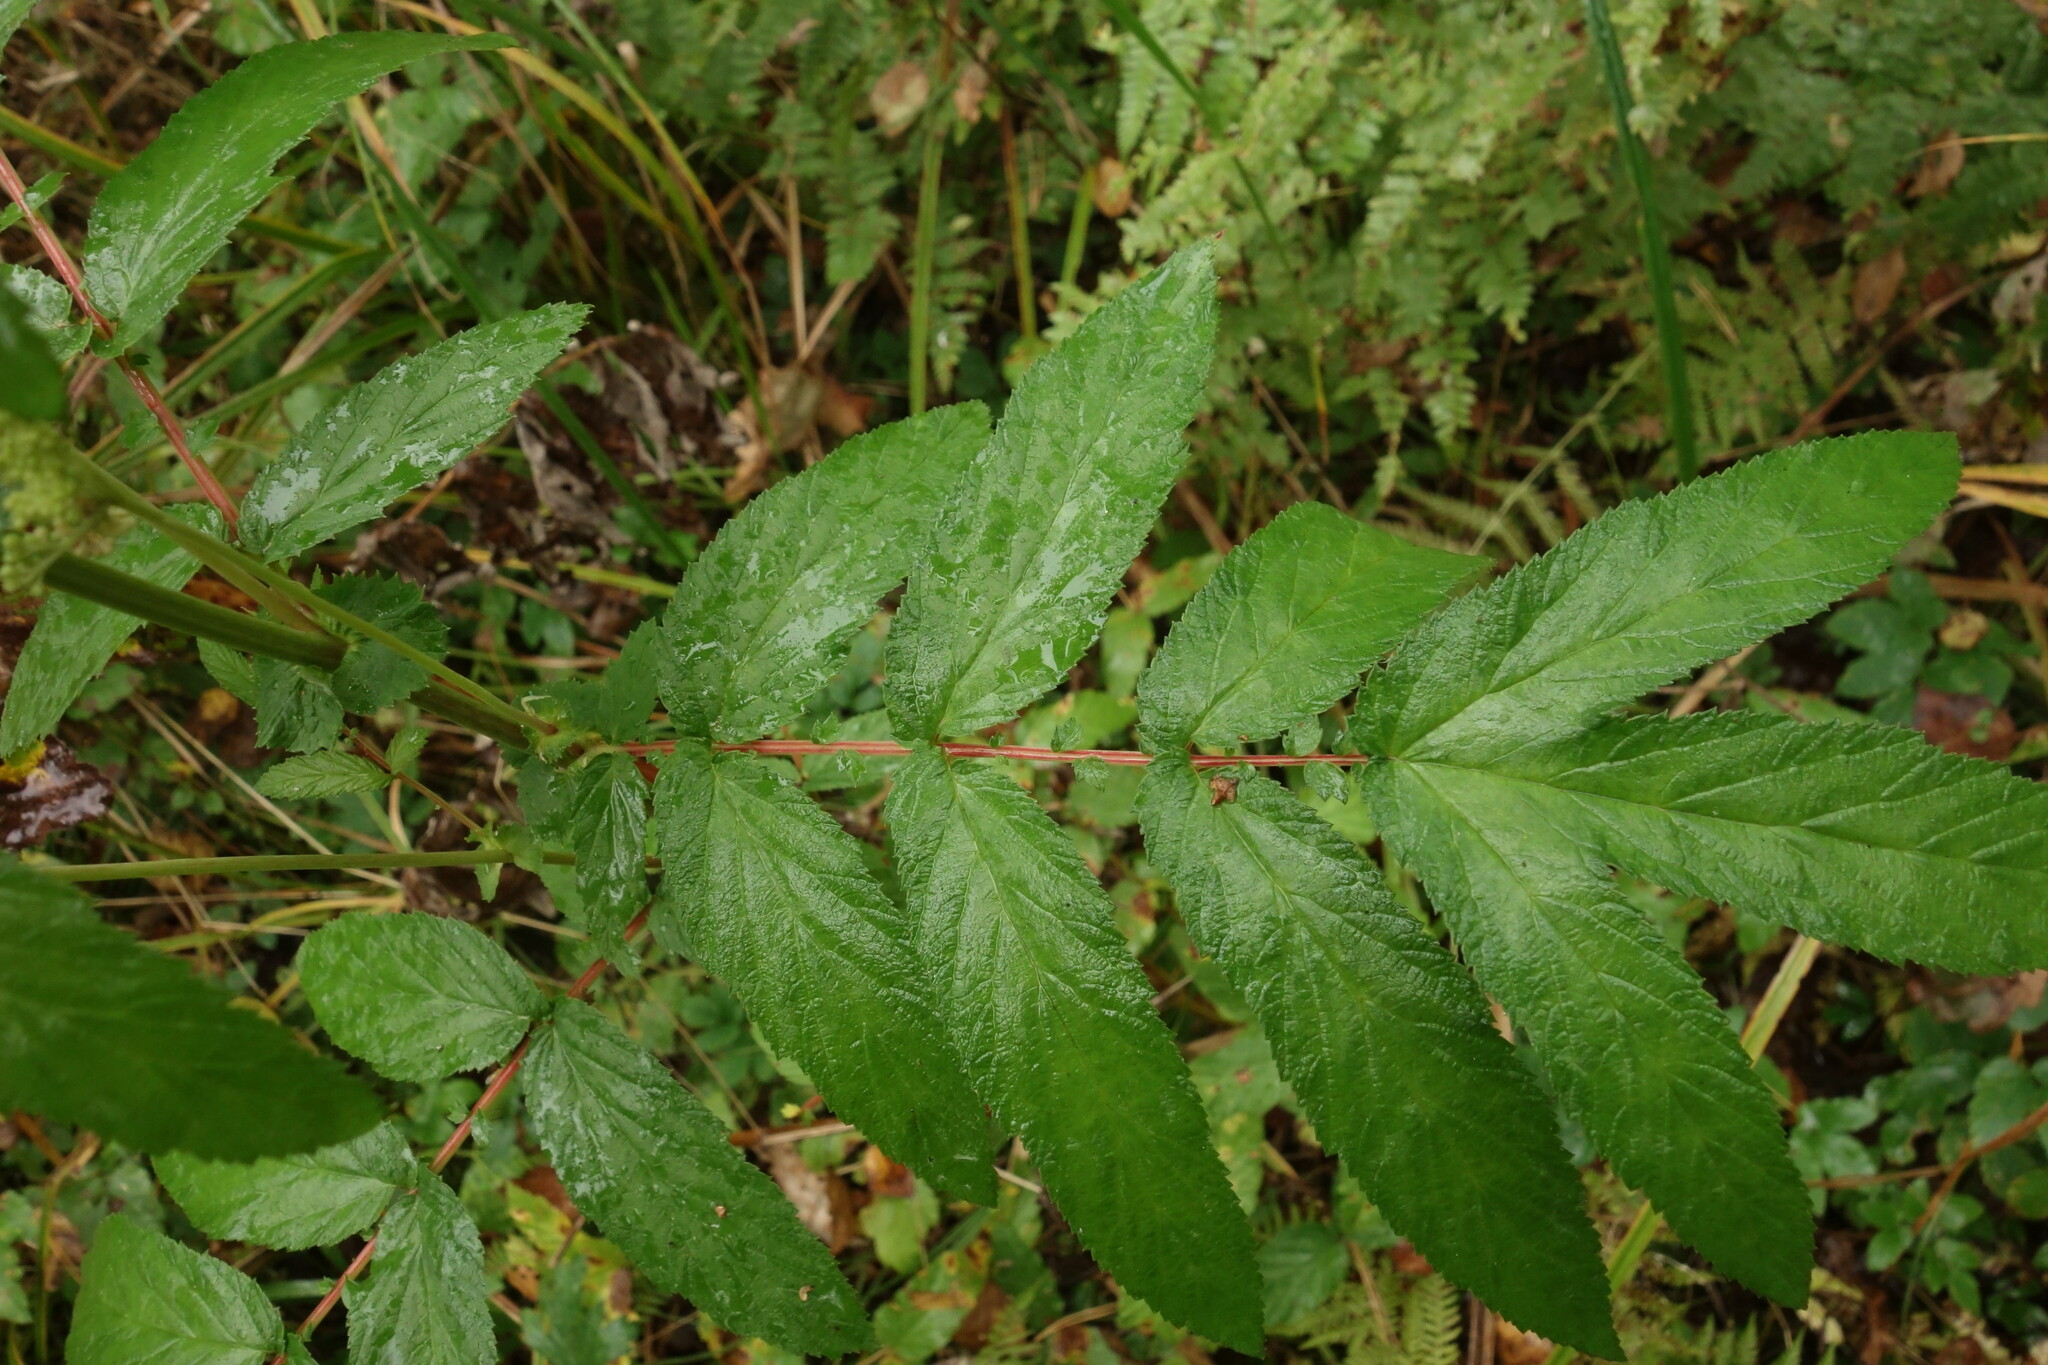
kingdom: Plantae
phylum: Tracheophyta
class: Magnoliopsida
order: Rosales
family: Rosaceae
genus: Filipendula
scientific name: Filipendula ulmaria
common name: Meadowsweet
